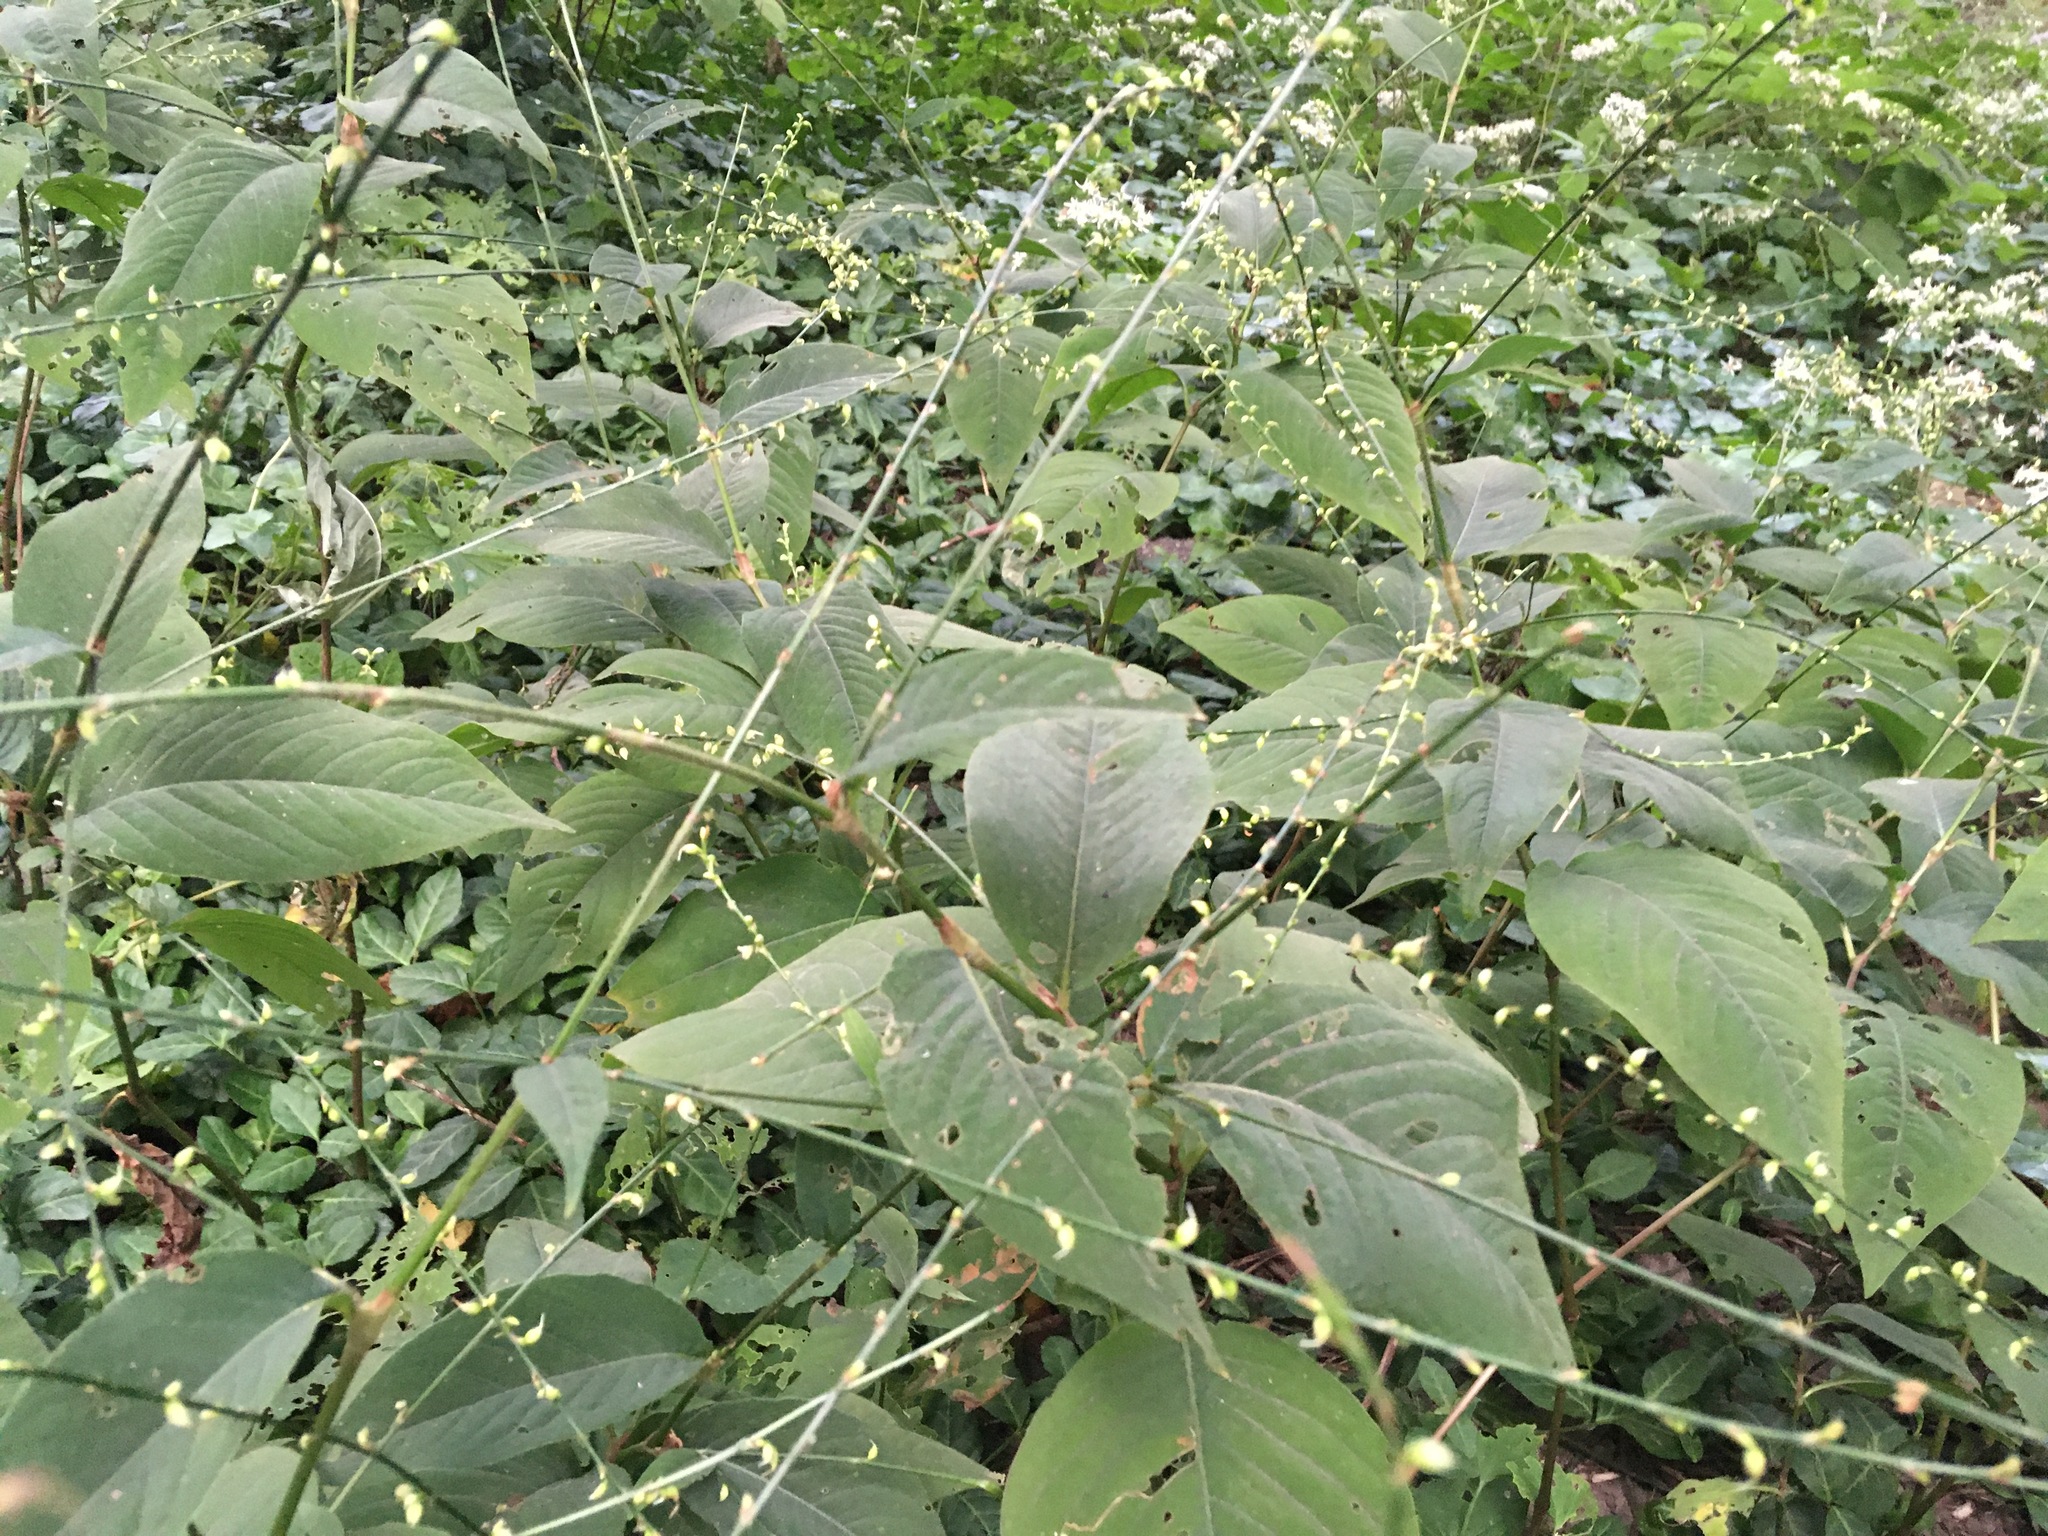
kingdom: Plantae
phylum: Tracheophyta
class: Magnoliopsida
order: Caryophyllales
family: Polygonaceae
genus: Persicaria
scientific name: Persicaria virginiana
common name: Jumpseed
